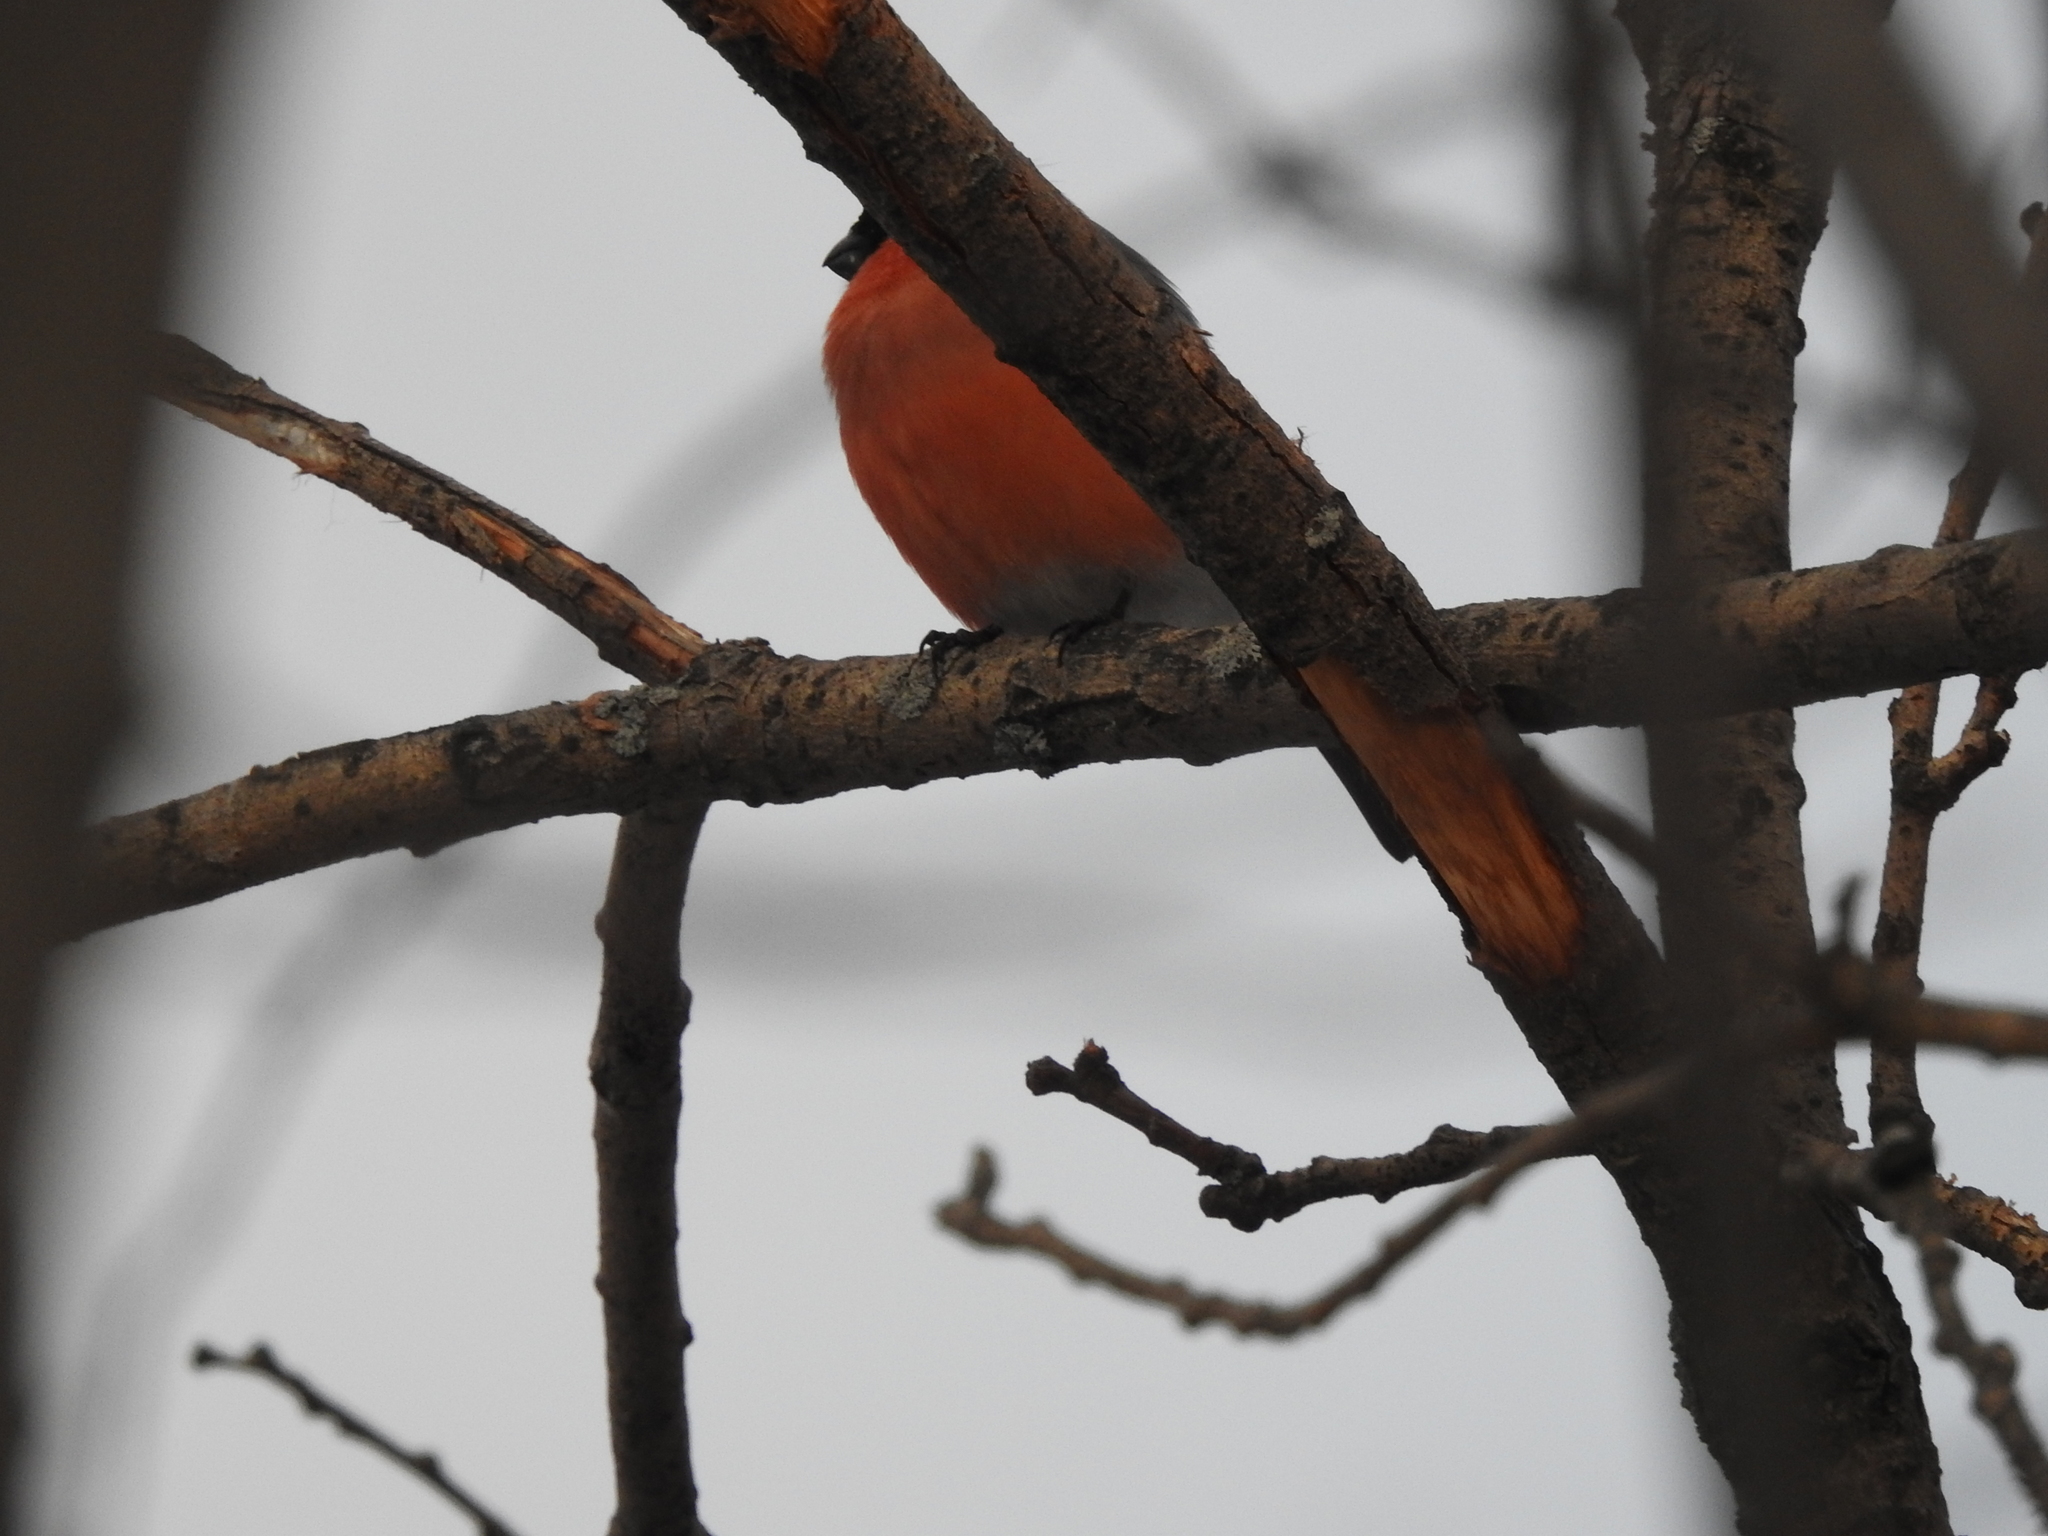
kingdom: Animalia
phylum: Chordata
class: Aves
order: Passeriformes
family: Fringillidae
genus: Pyrrhula
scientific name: Pyrrhula pyrrhula
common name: Eurasian bullfinch
